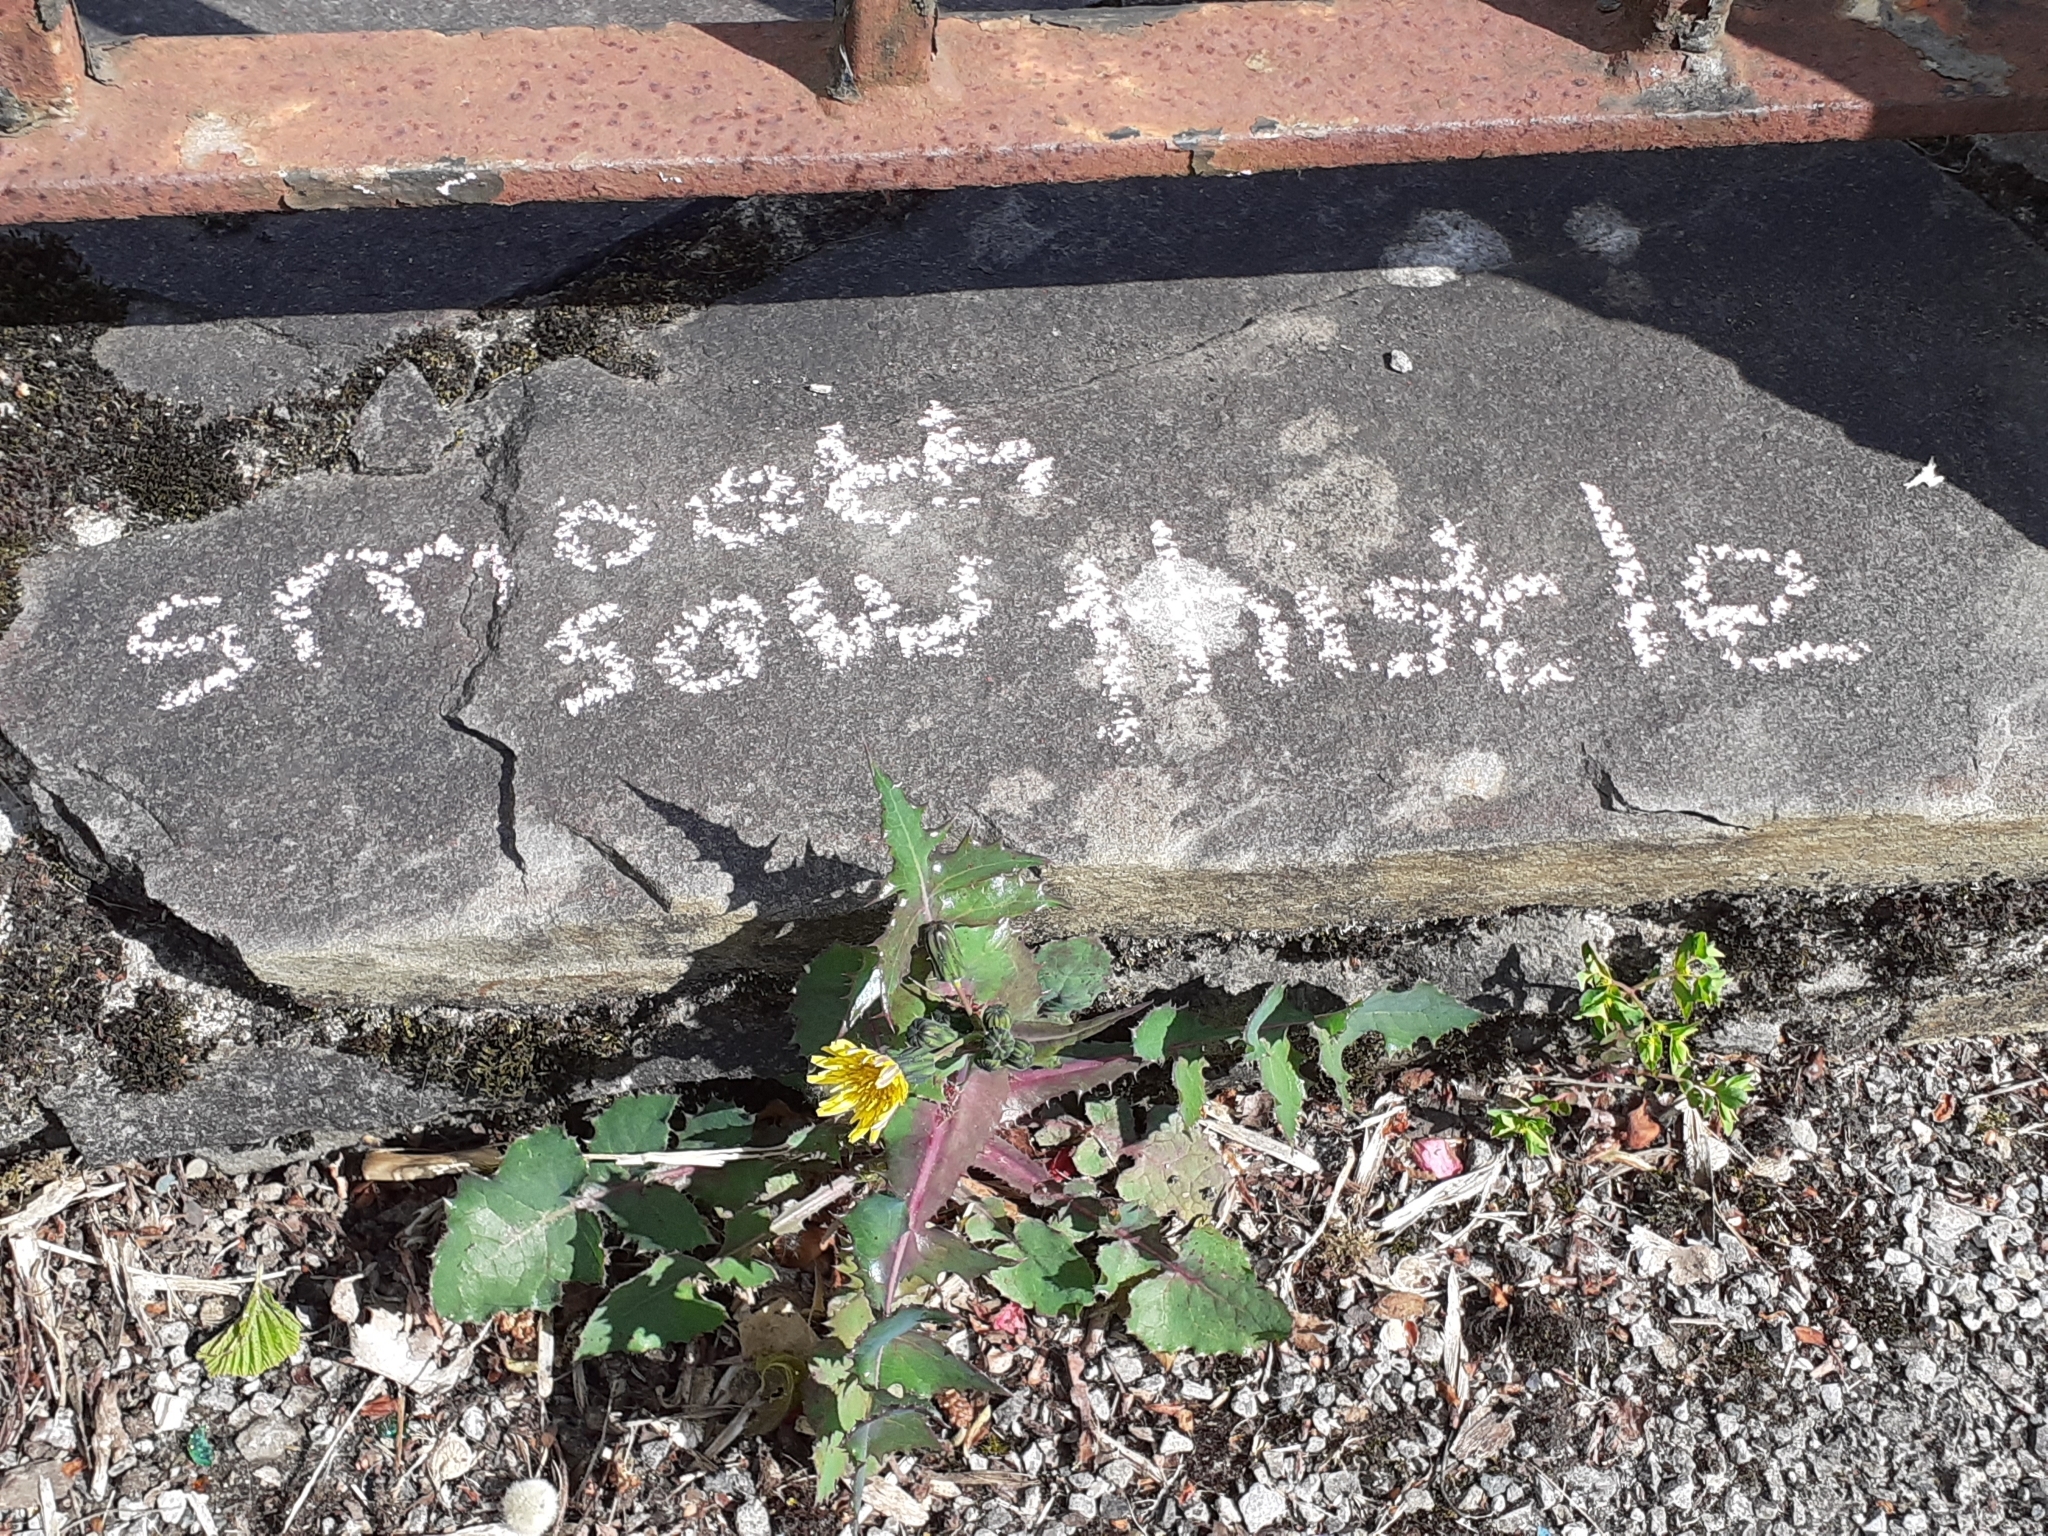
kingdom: Plantae
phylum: Tracheophyta
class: Magnoliopsida
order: Asterales
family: Asteraceae
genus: Sonchus
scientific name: Sonchus oleraceus
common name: Common sowthistle
